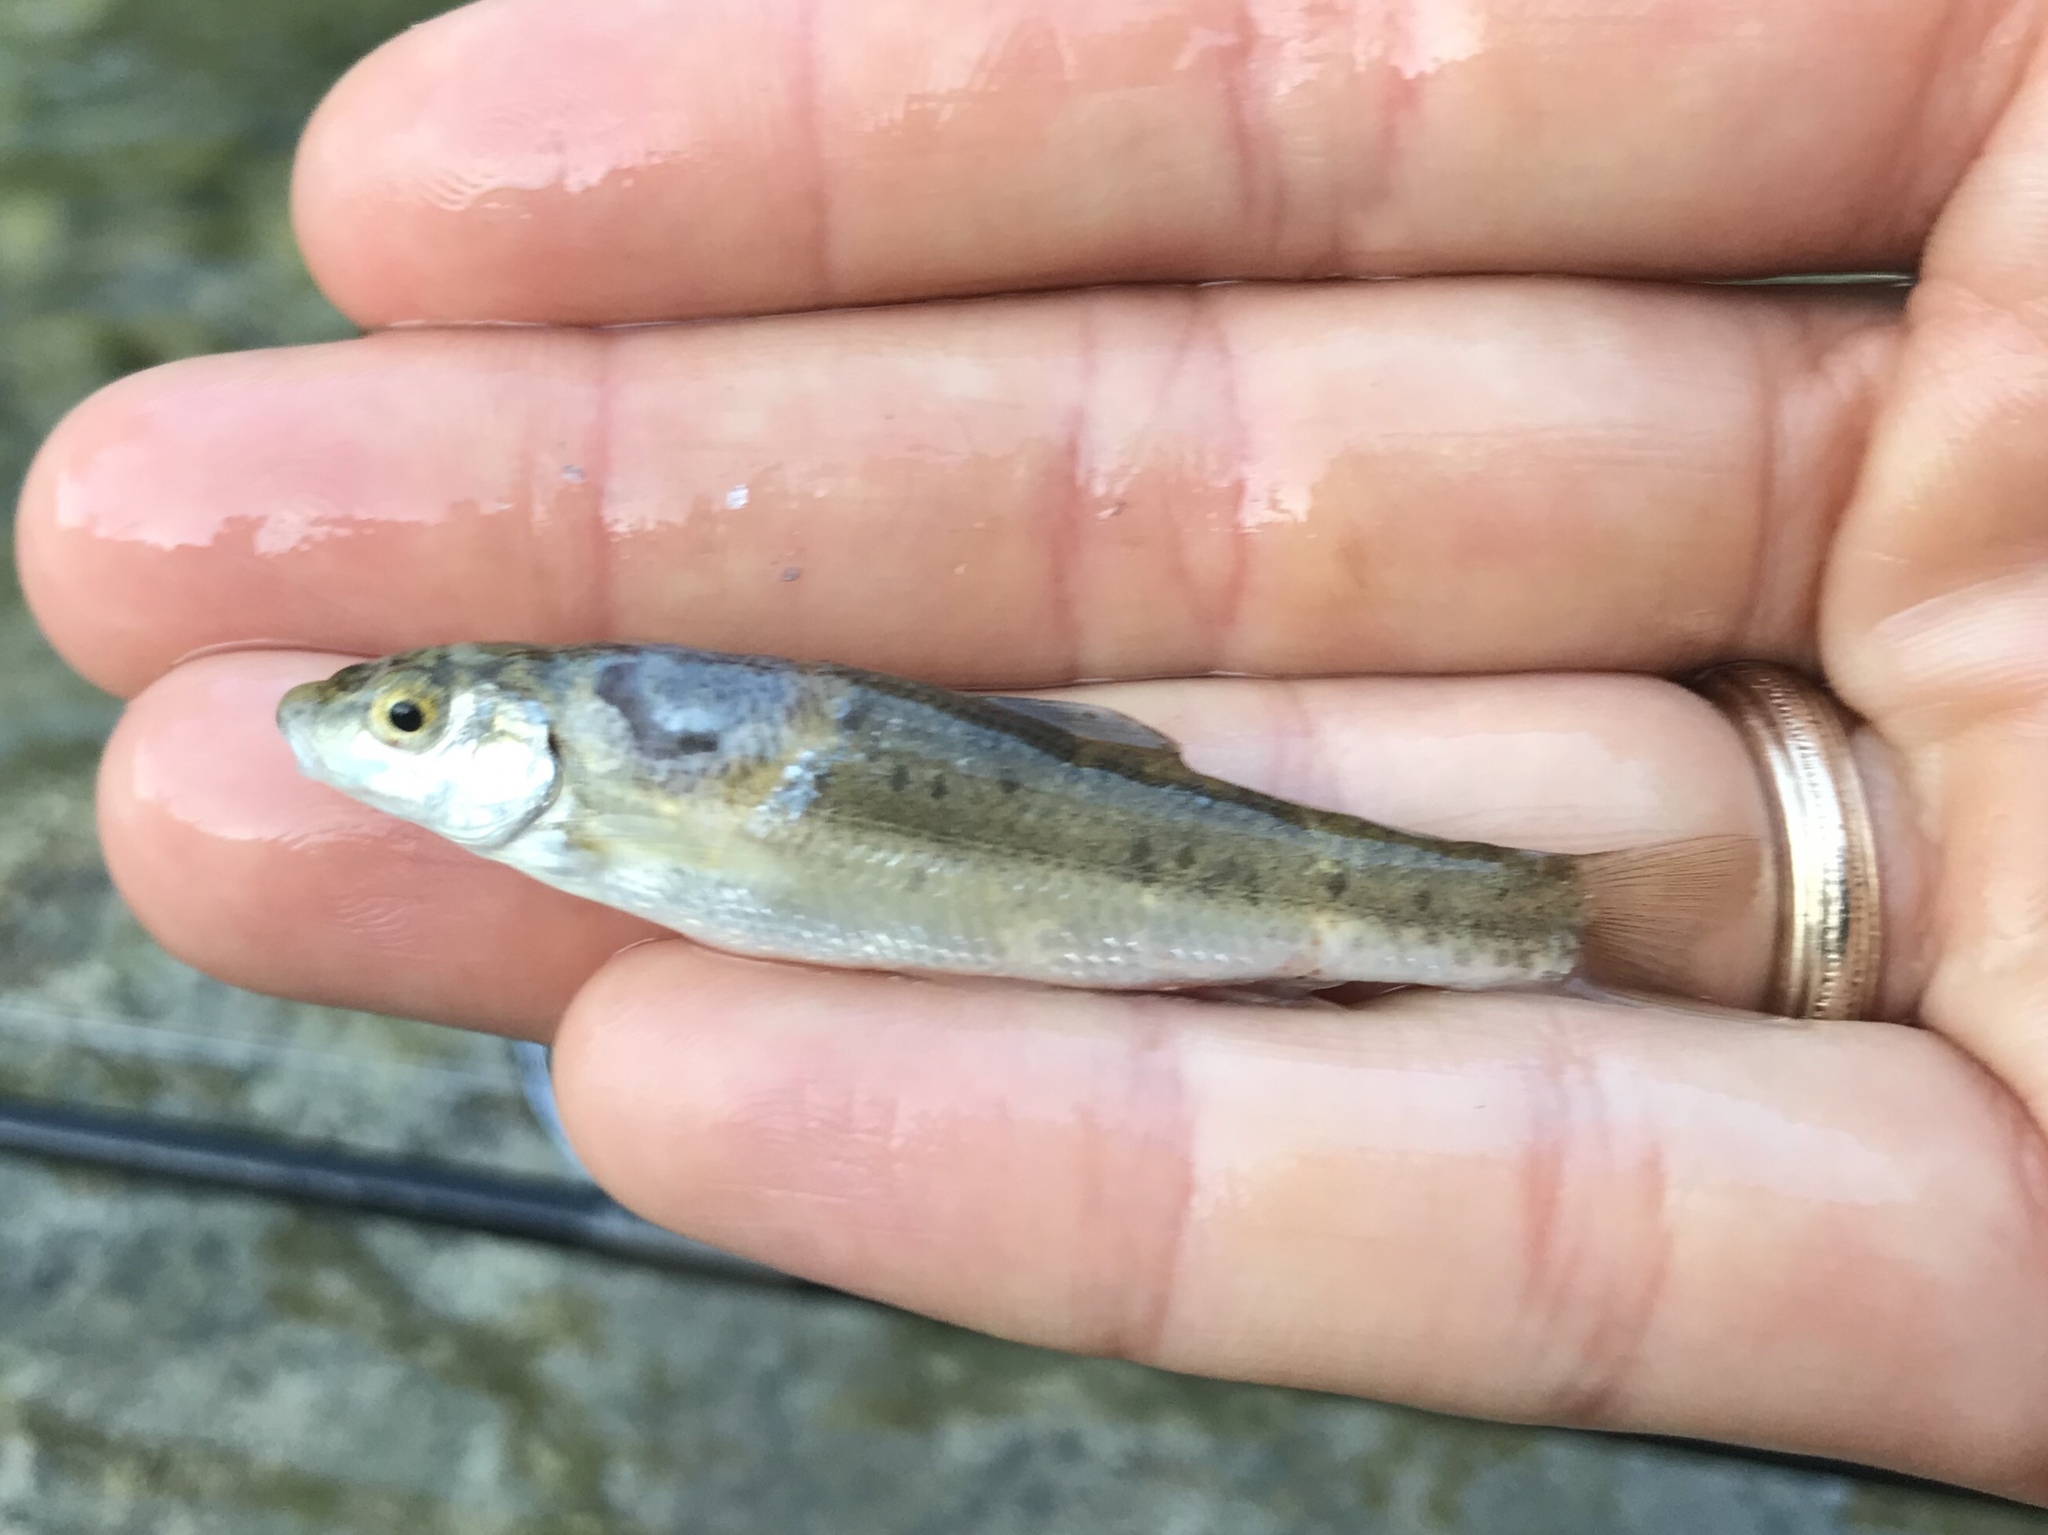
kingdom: Animalia
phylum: Chordata
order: Cypriniformes
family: Cyprinidae
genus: Campostoma
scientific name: Campostoma anomalum
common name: Central stoneroller
